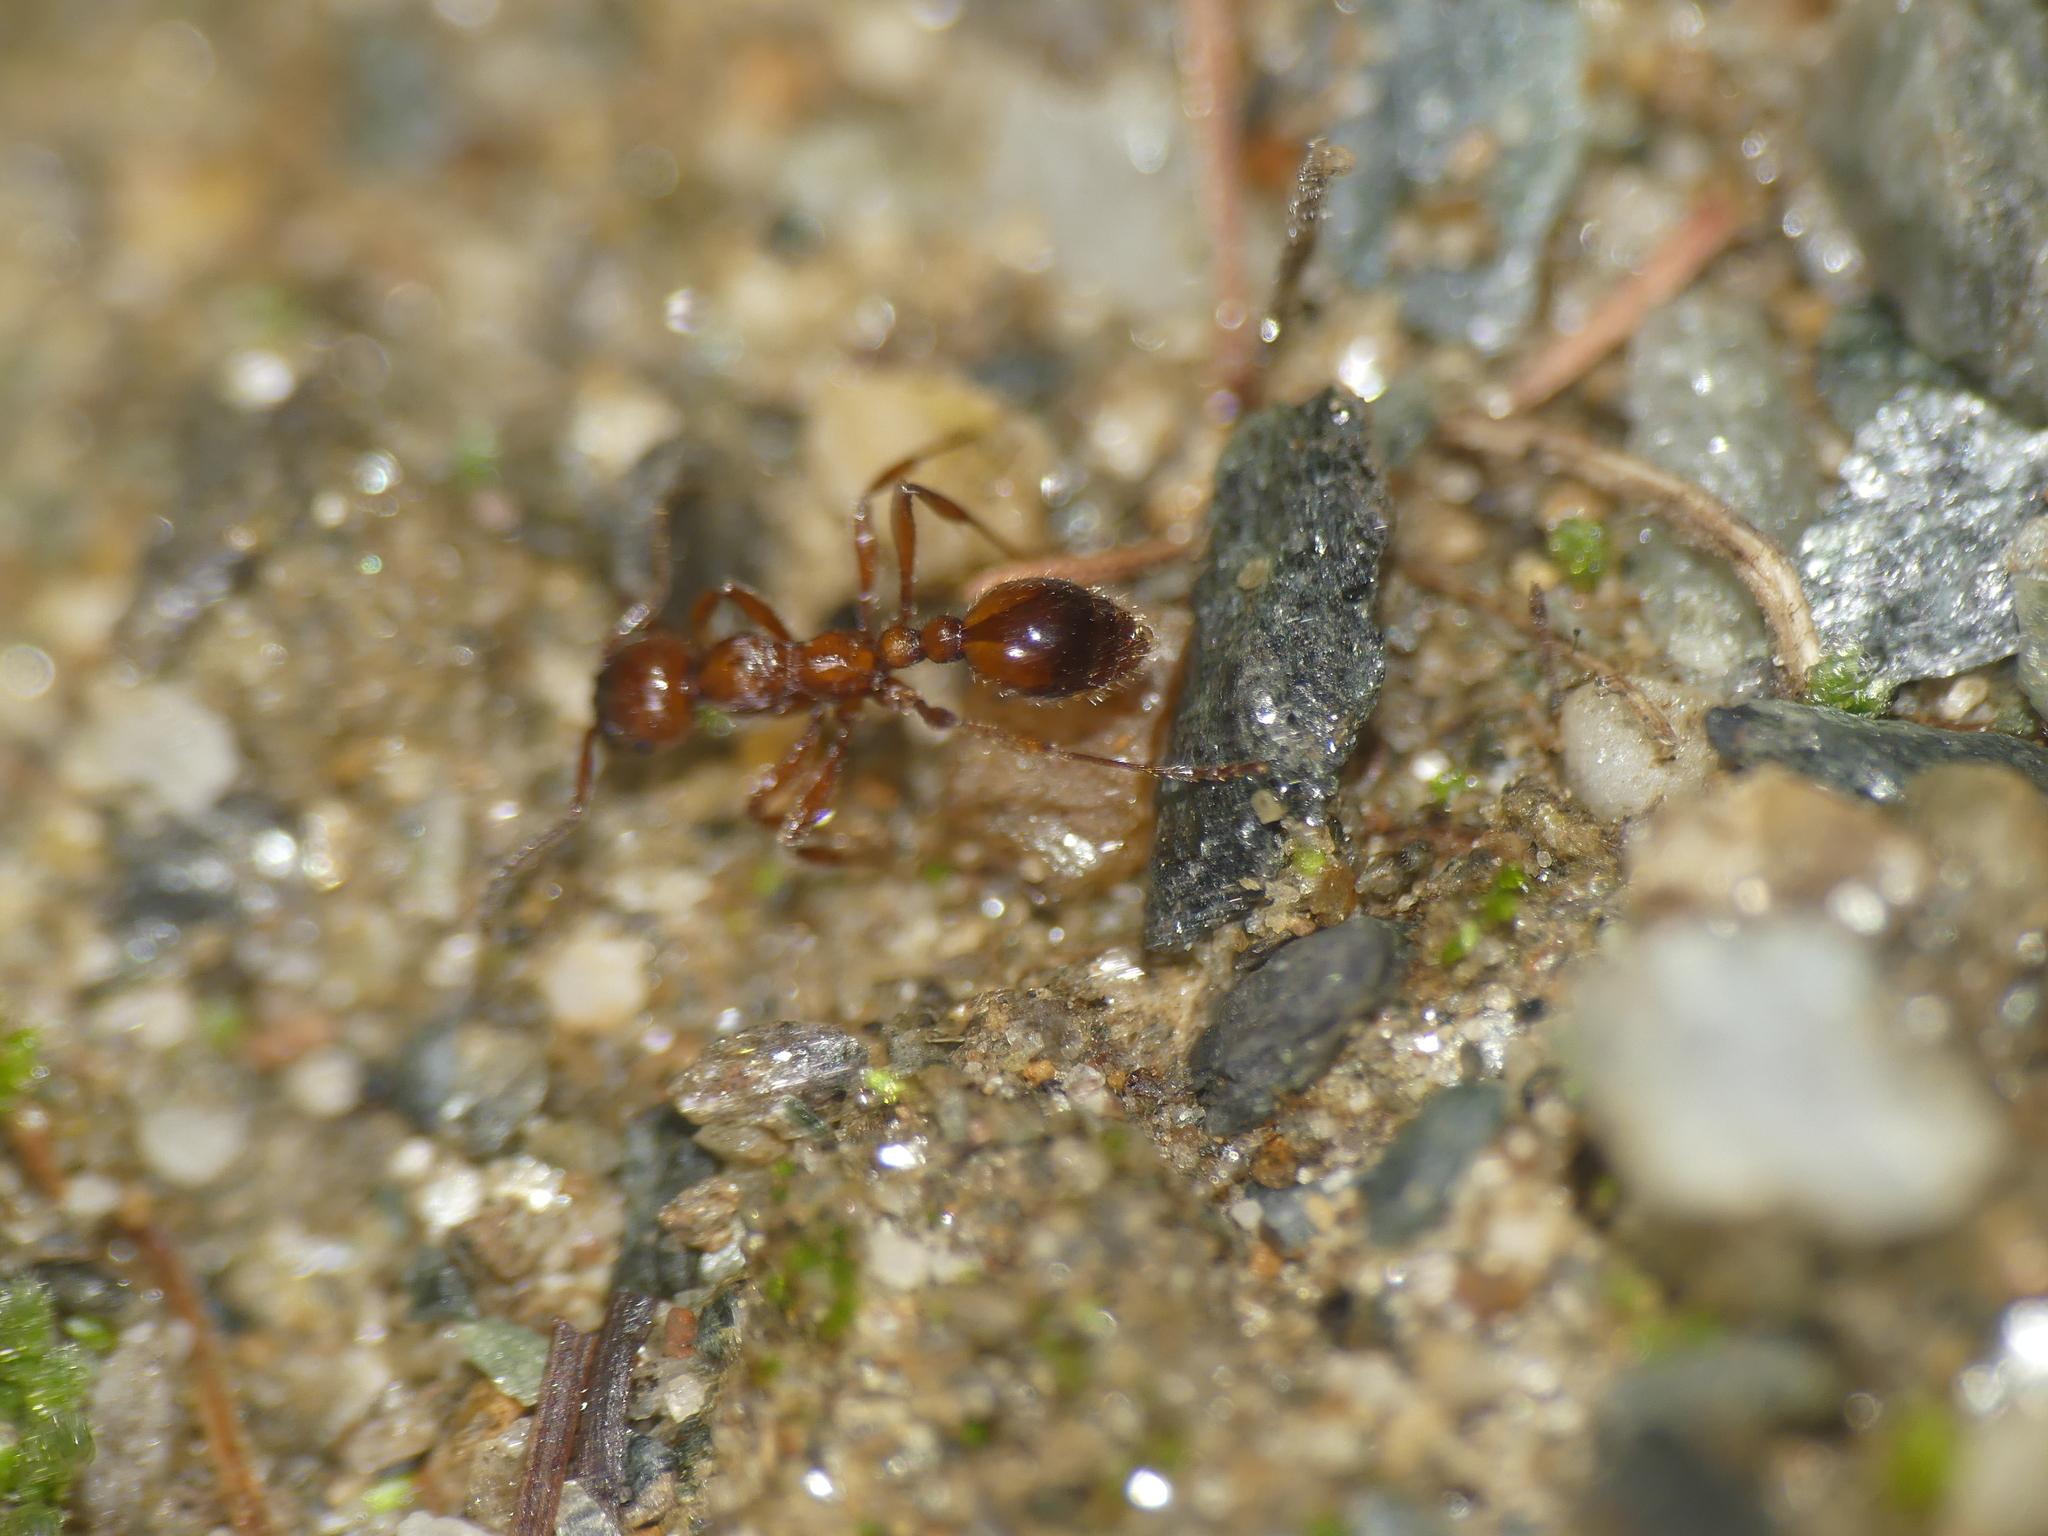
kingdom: Animalia
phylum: Arthropoda
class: Insecta
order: Hymenoptera
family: Formicidae
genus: Manica
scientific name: Manica rubida
